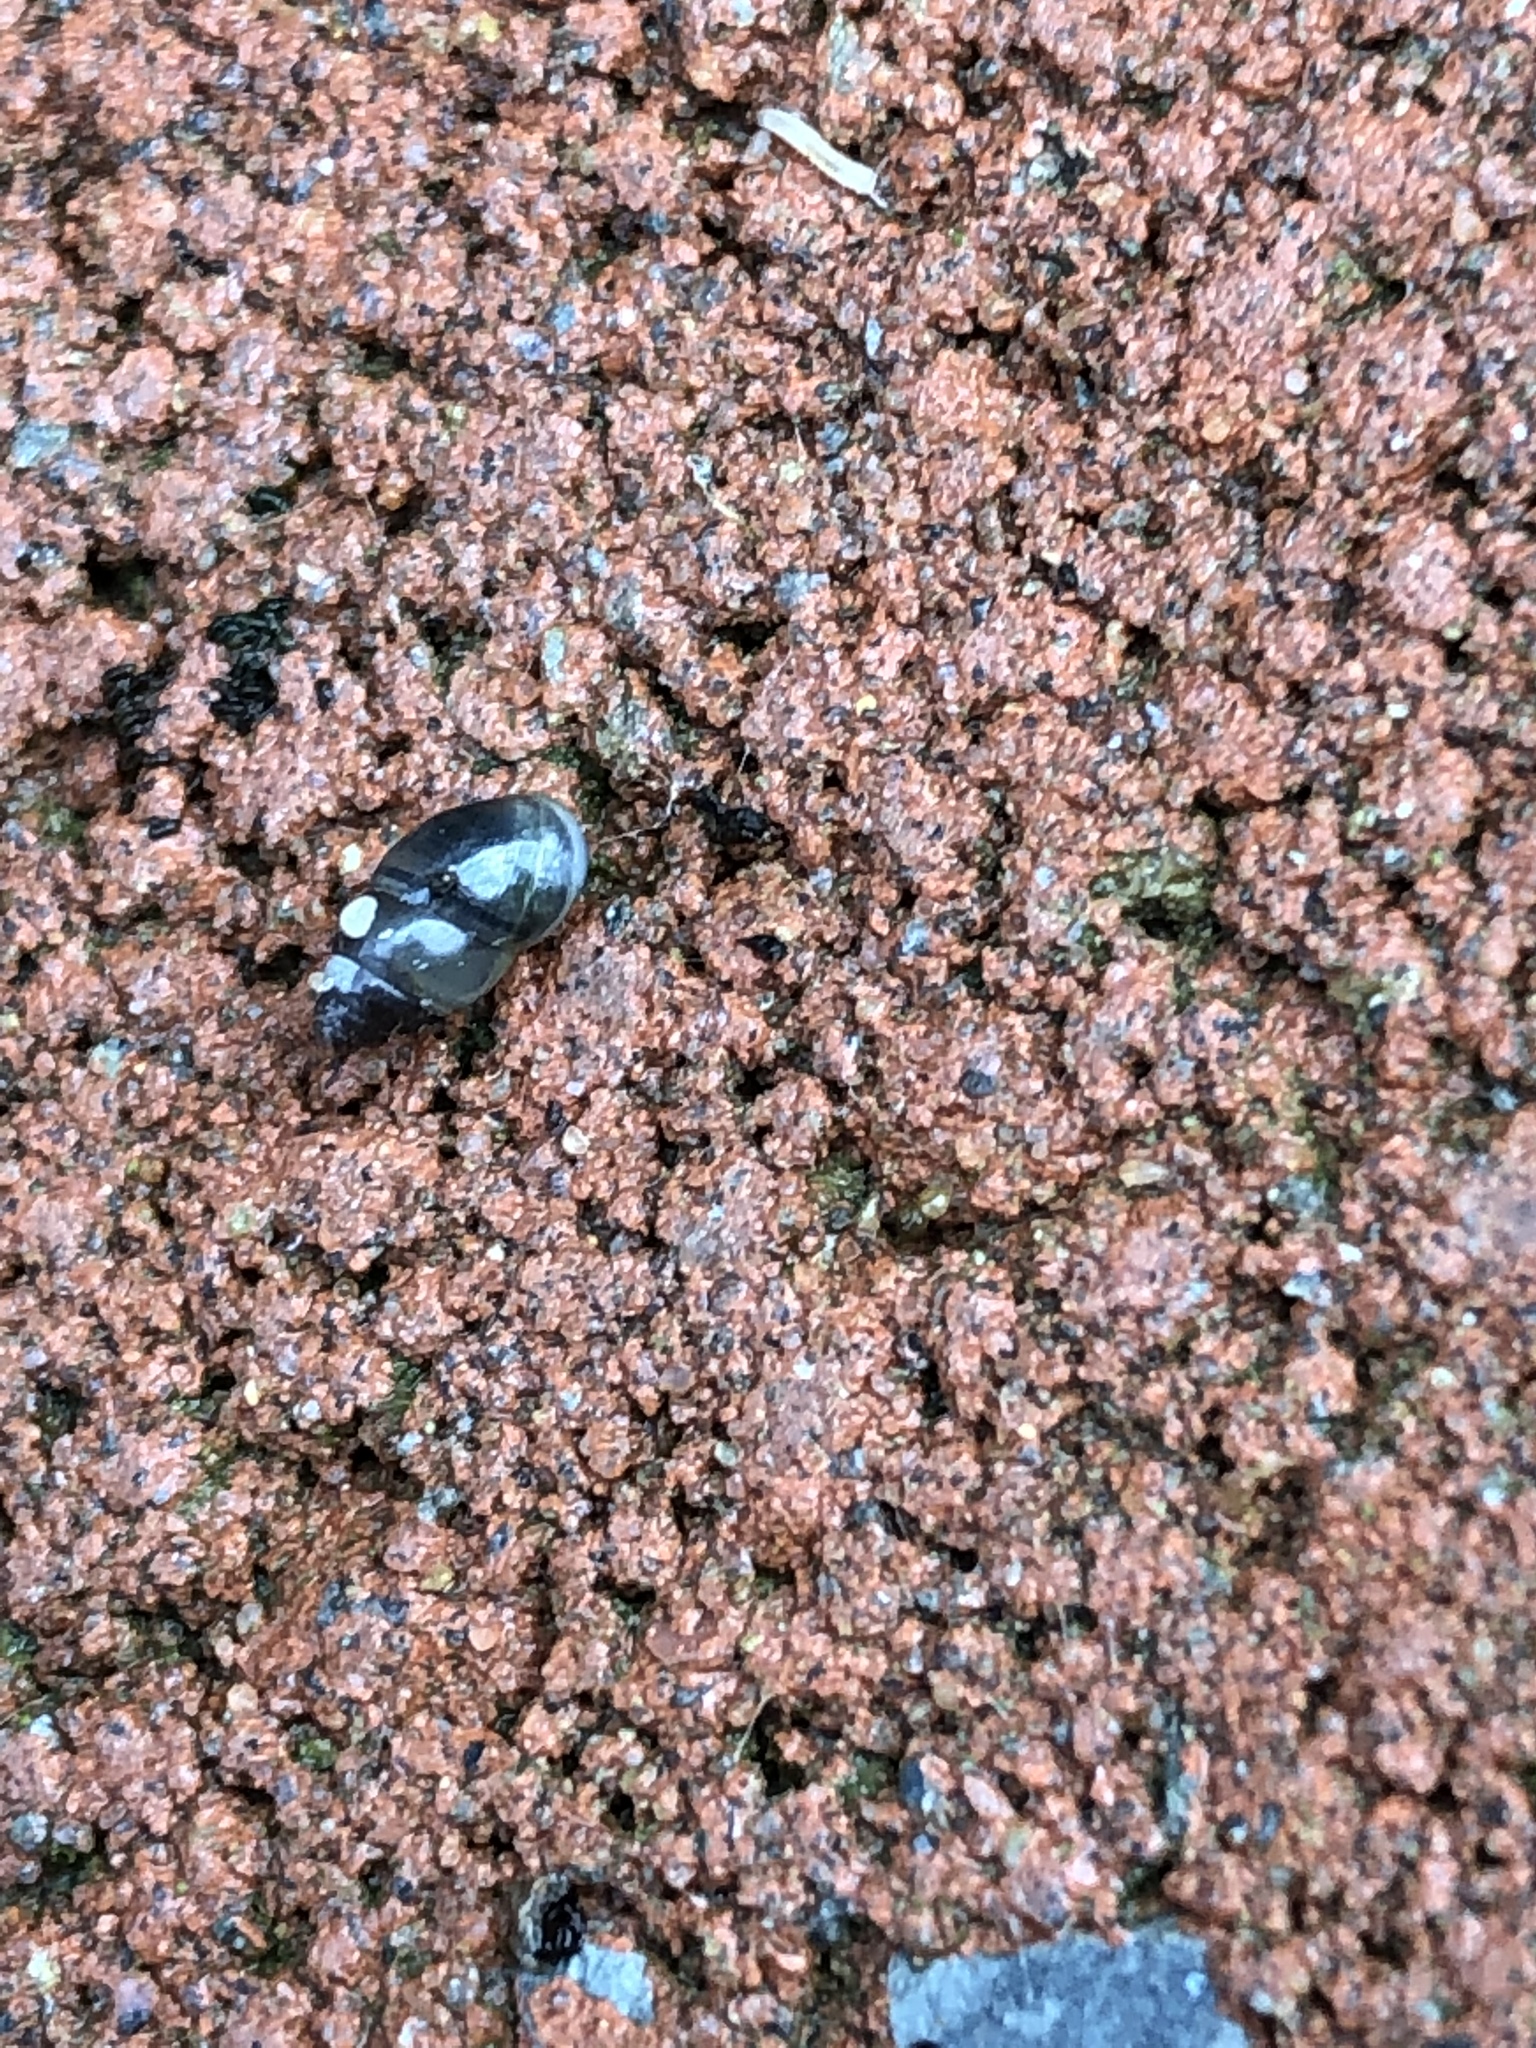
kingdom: Animalia
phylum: Mollusca
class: Gastropoda
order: Stylommatophora
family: Cochlicopidae
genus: Cochlicopa
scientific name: Cochlicopa lubrica
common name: Glossy pillar snail
